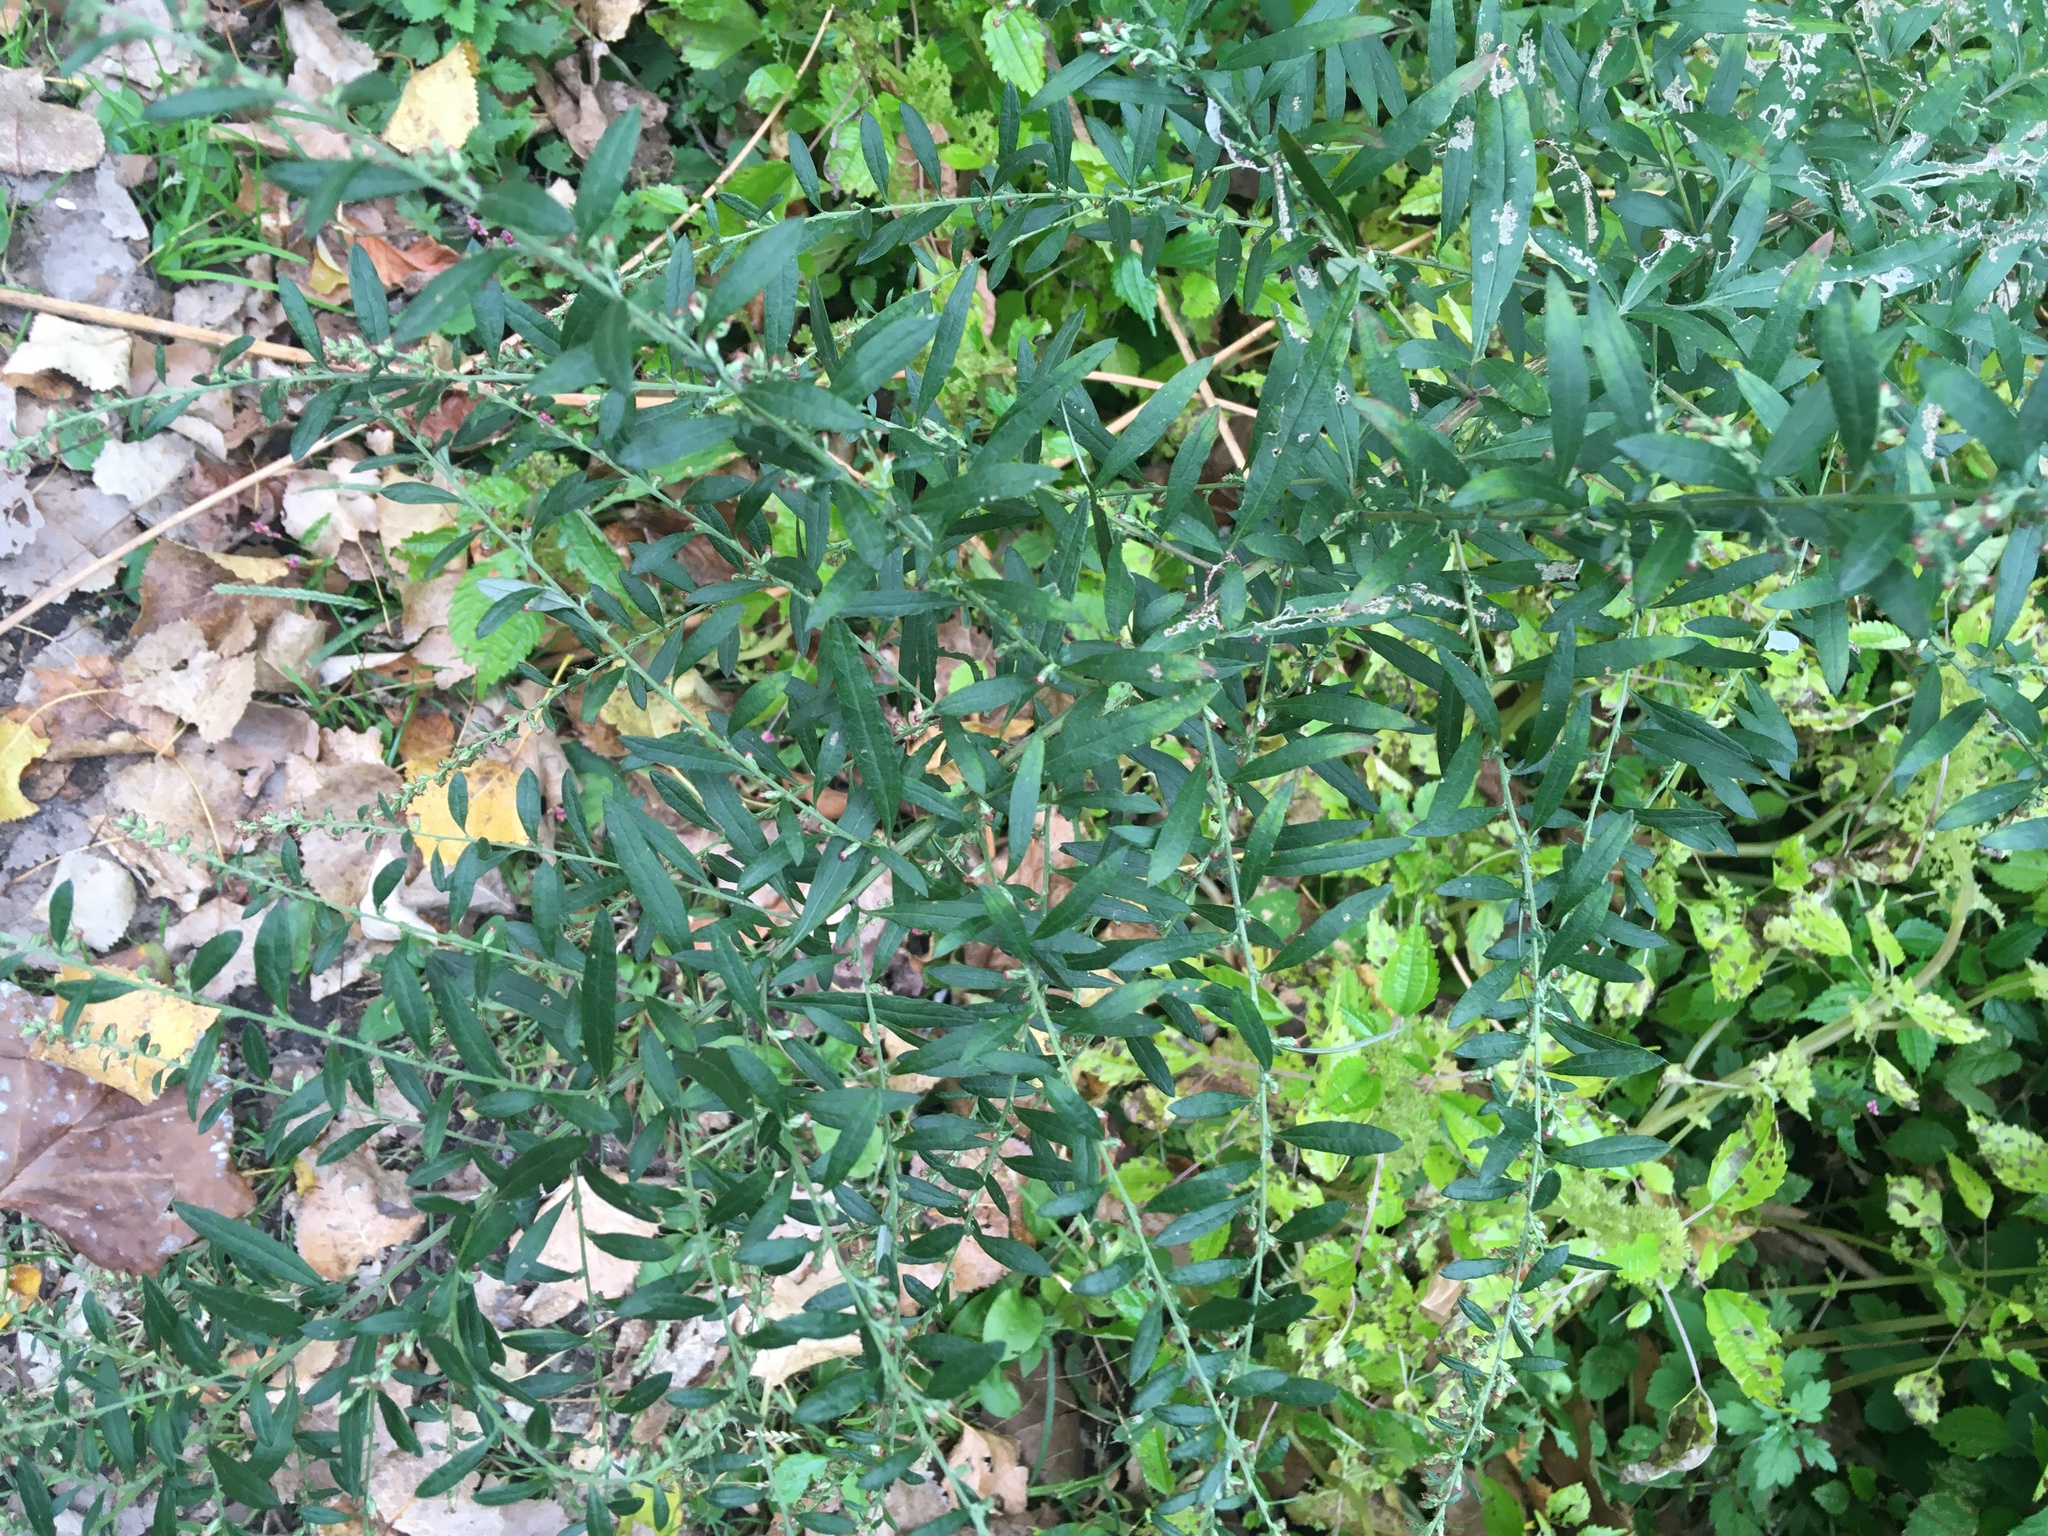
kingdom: Plantae
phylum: Tracheophyta
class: Magnoliopsida
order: Asterales
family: Asteraceae
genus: Artemisia
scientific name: Artemisia vulgaris
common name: Mugwort
